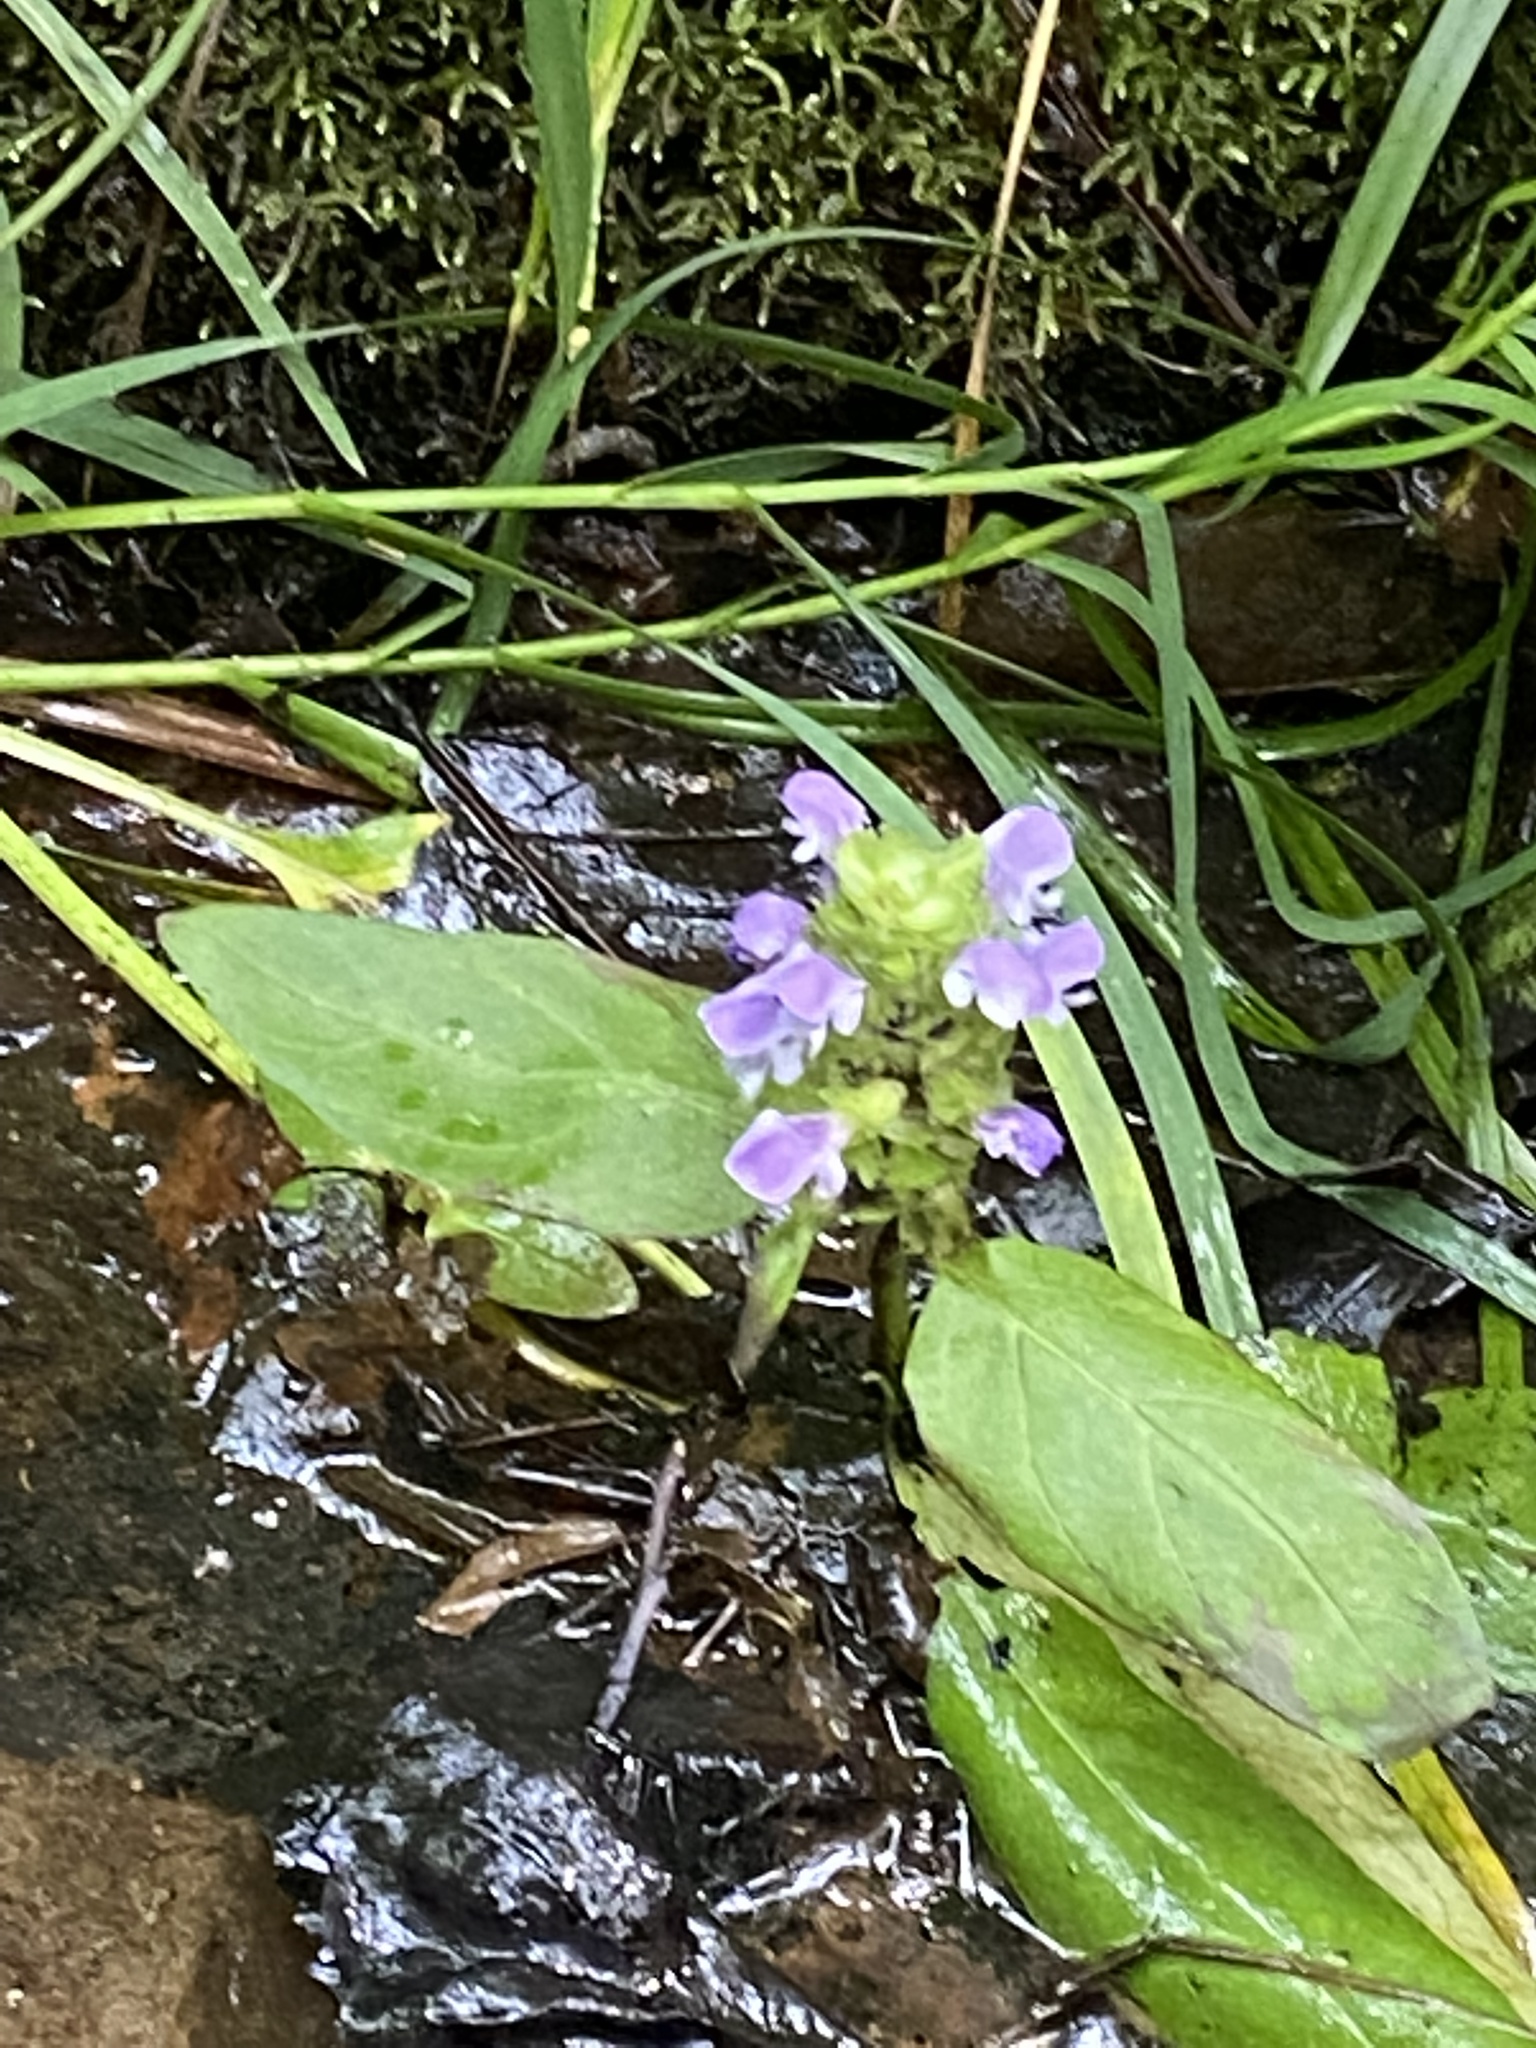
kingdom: Plantae
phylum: Tracheophyta
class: Magnoliopsida
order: Lamiales
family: Lamiaceae
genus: Prunella
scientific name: Prunella vulgaris
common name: Heal-all
